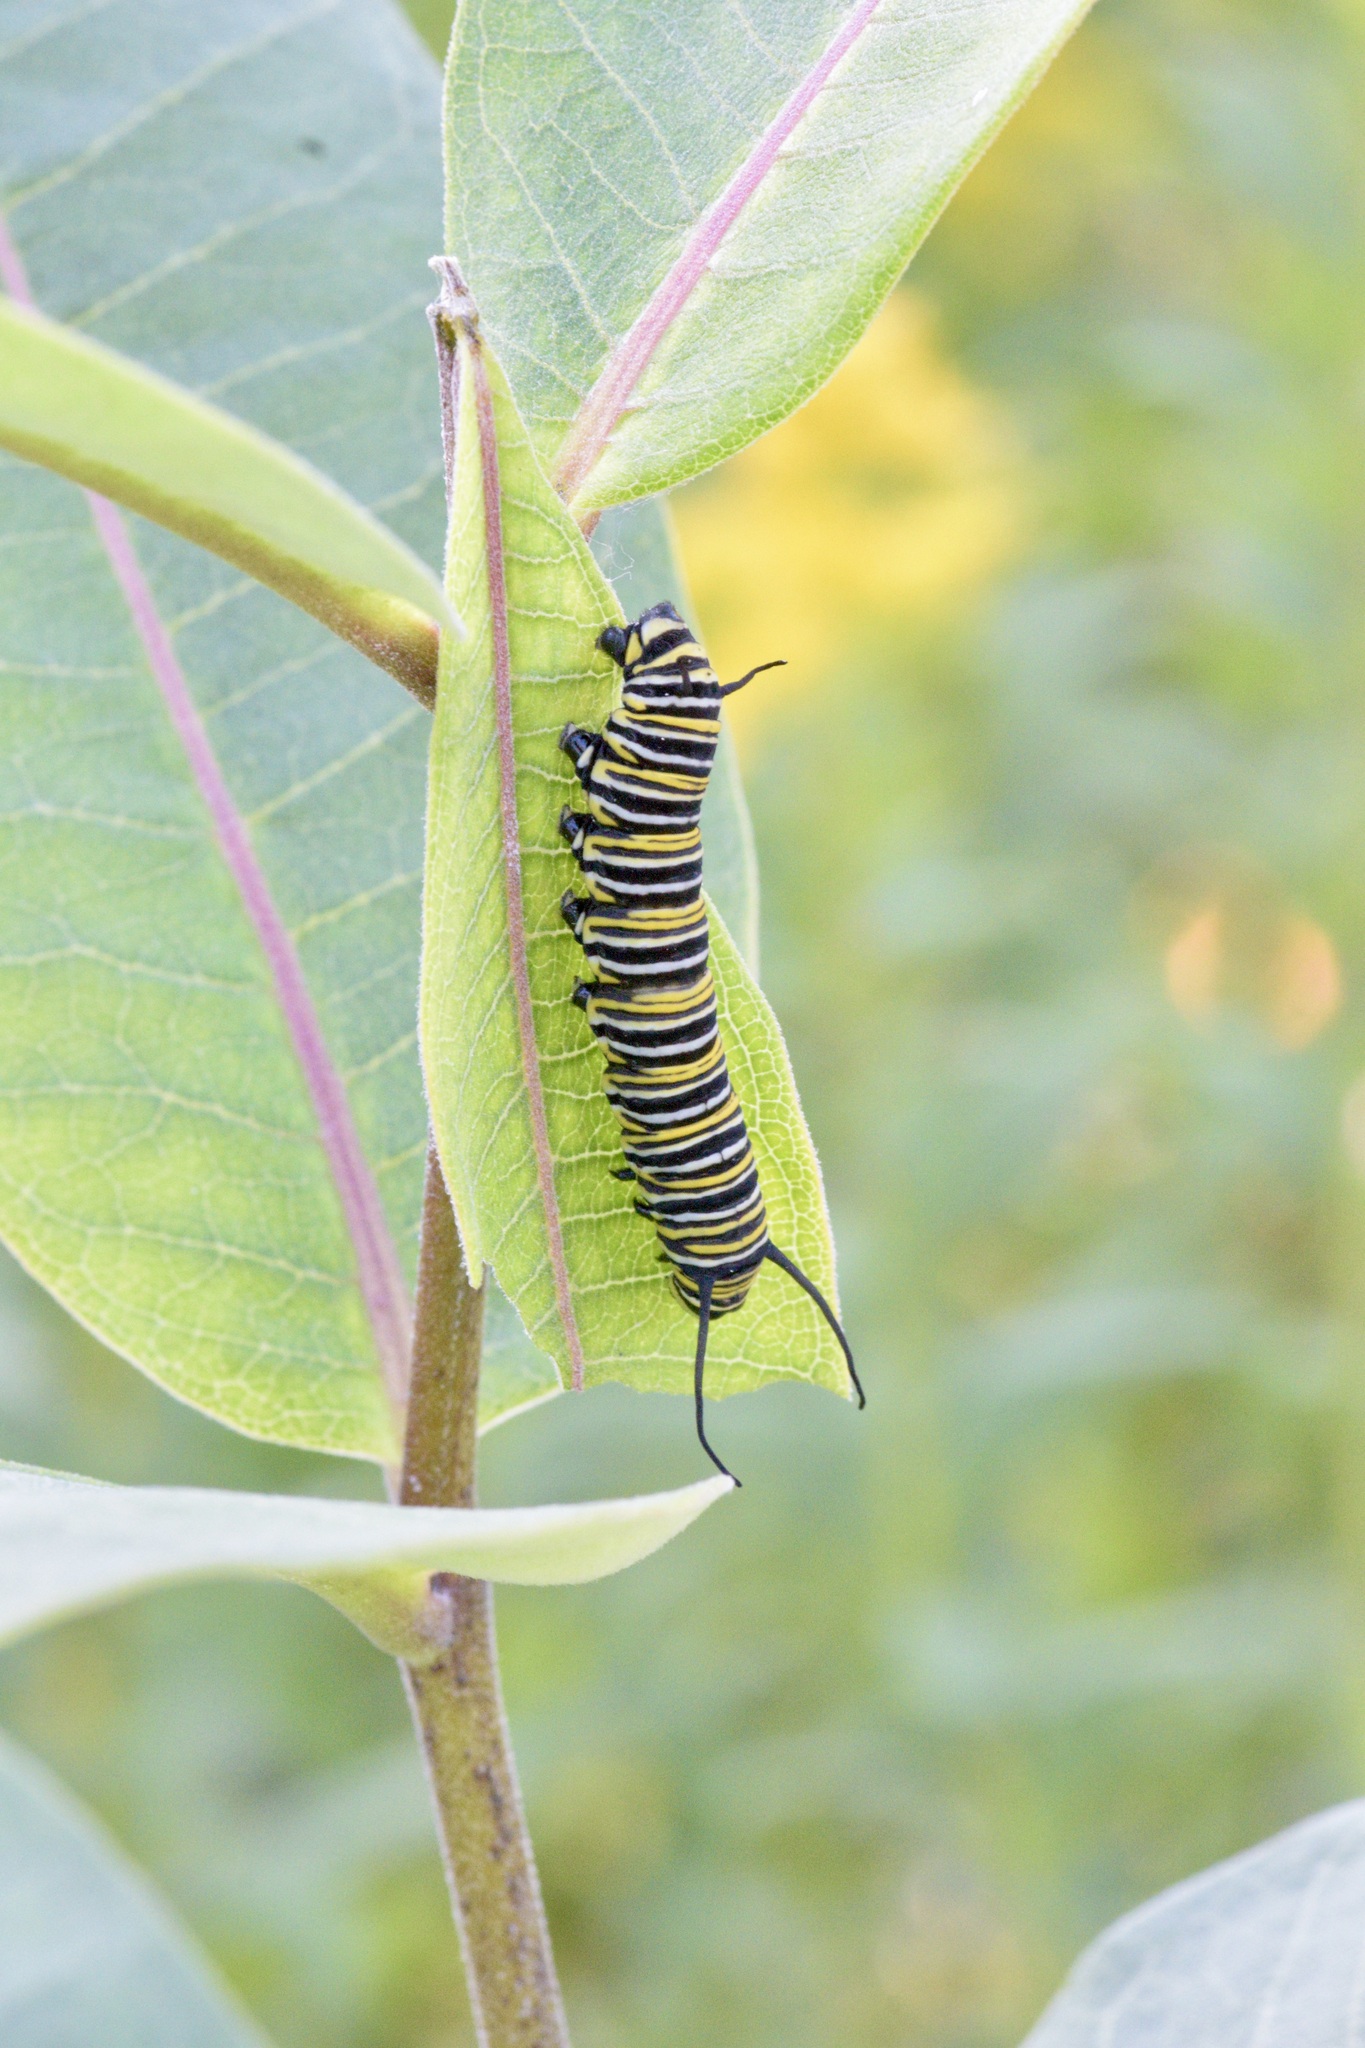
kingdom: Animalia
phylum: Arthropoda
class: Insecta
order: Lepidoptera
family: Nymphalidae
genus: Danaus
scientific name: Danaus plexippus
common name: Monarch
